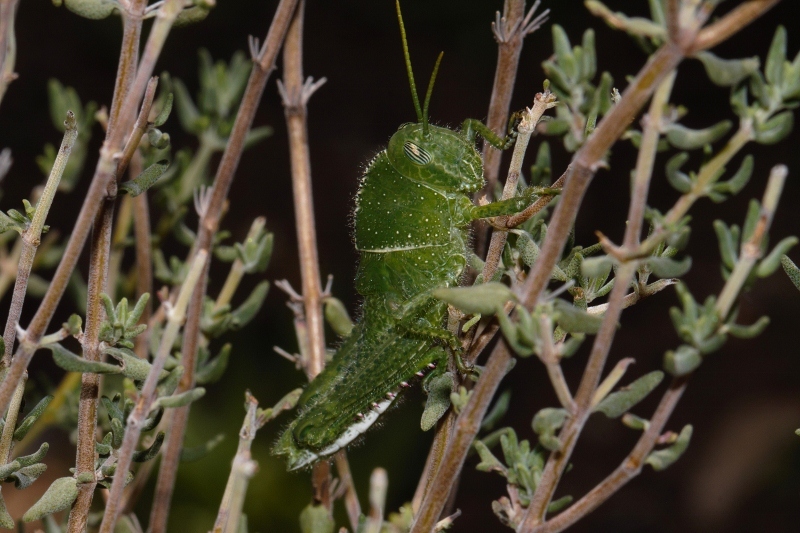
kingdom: Animalia
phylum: Arthropoda
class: Insecta
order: Orthoptera
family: Acrididae
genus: Acanthacris
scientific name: Acanthacris ruficornis
